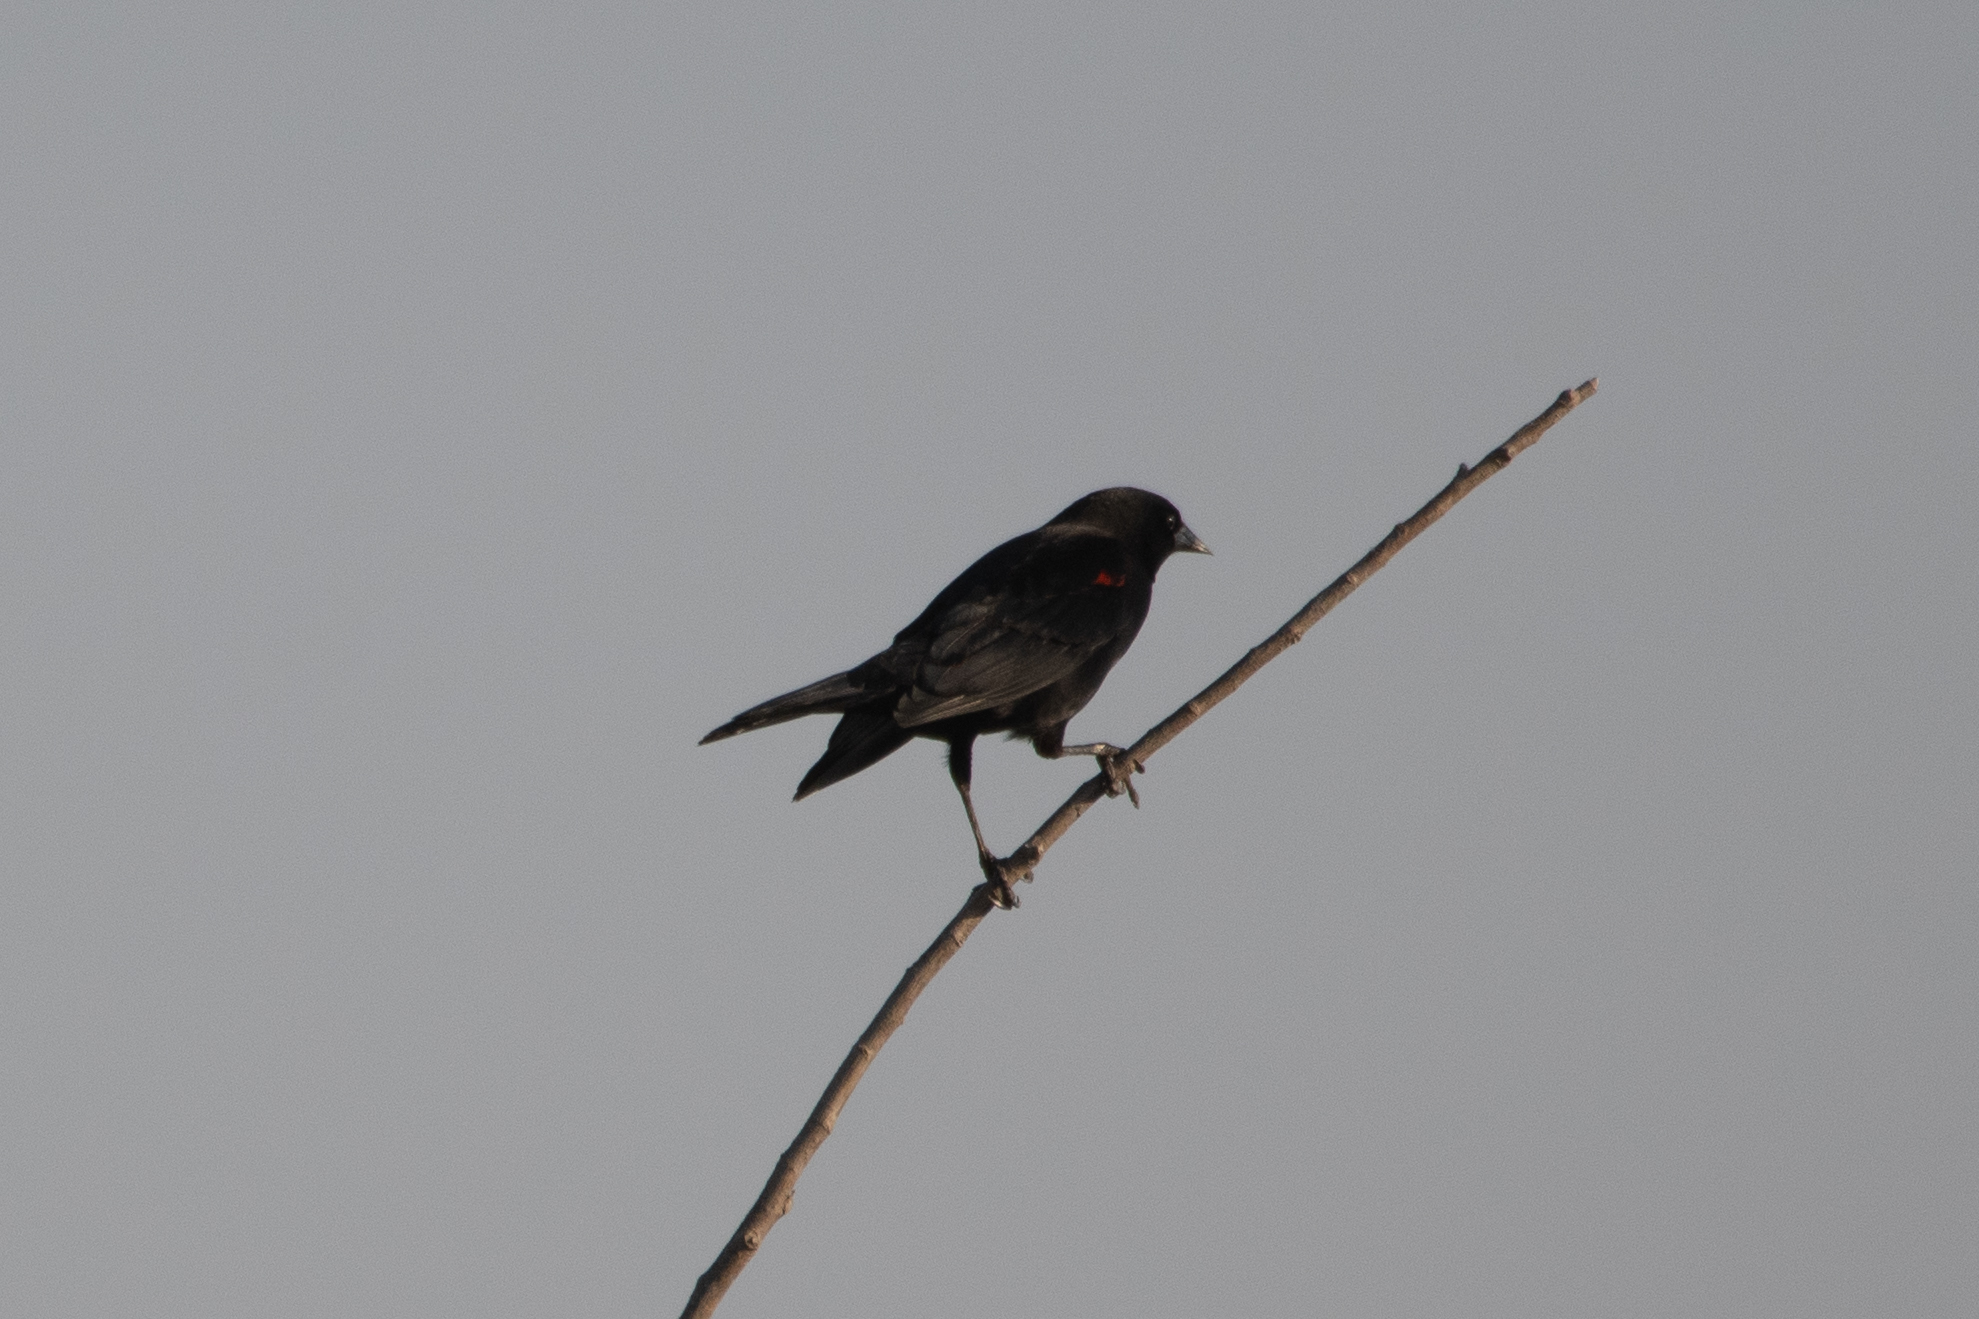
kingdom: Animalia
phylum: Chordata
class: Aves
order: Passeriformes
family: Icteridae
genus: Agelaius
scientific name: Agelaius phoeniceus
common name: Red-winged blackbird
